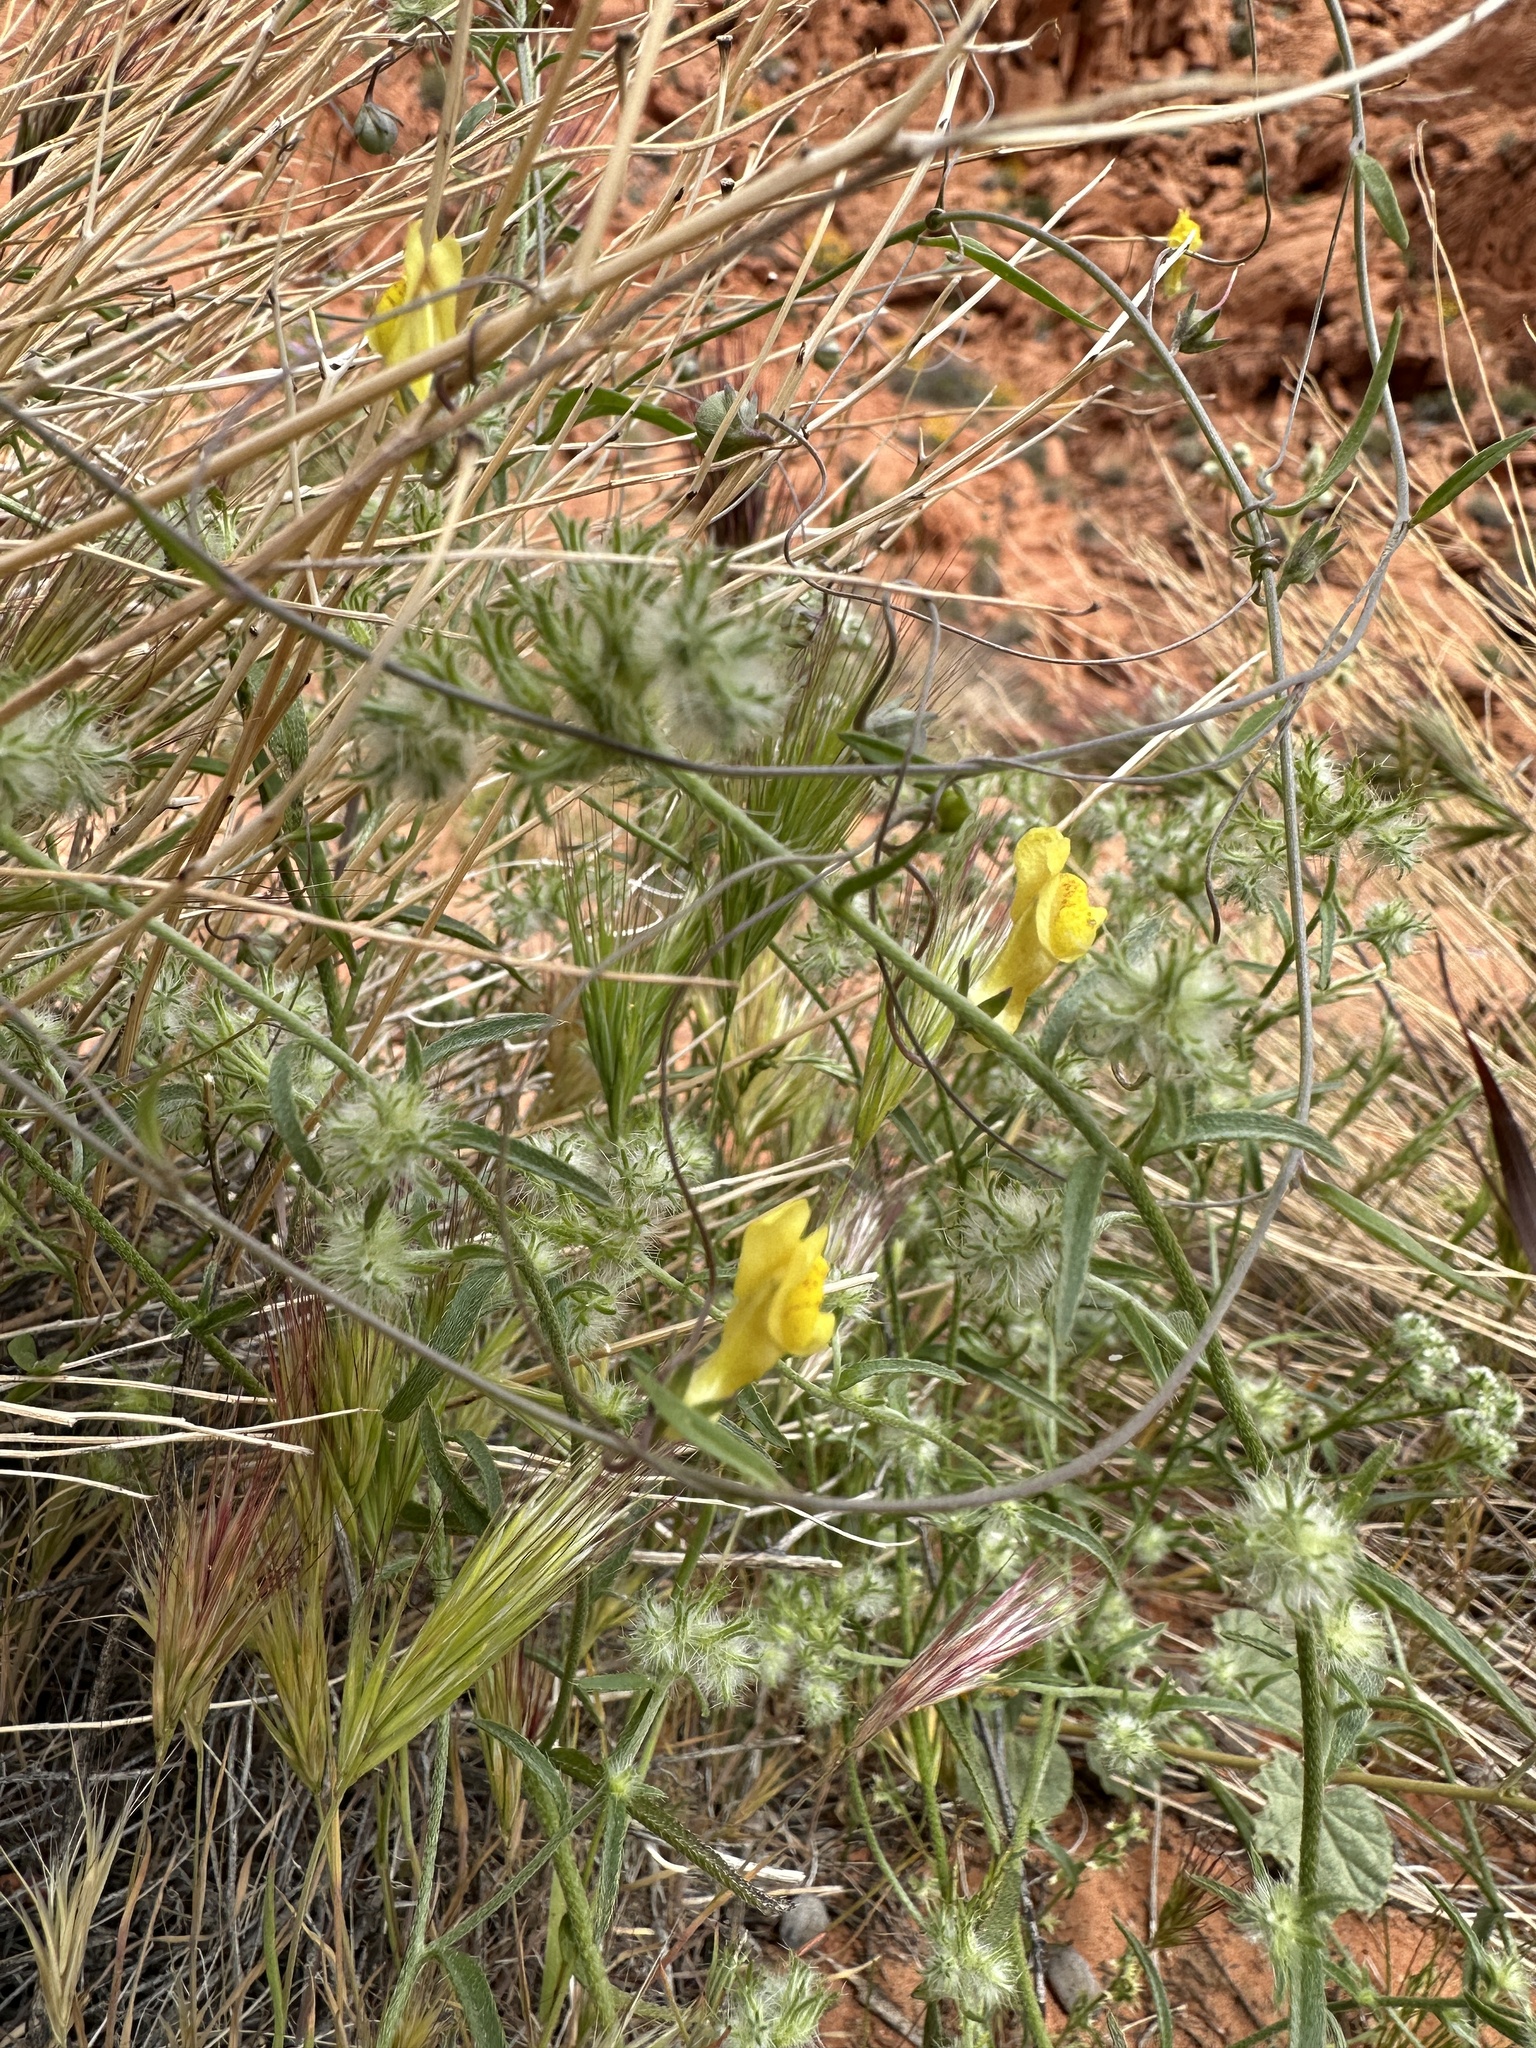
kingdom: Plantae
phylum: Tracheophyta
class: Magnoliopsida
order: Lamiales
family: Plantaginaceae
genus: Neogaerrhinum
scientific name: Neogaerrhinum filipes
